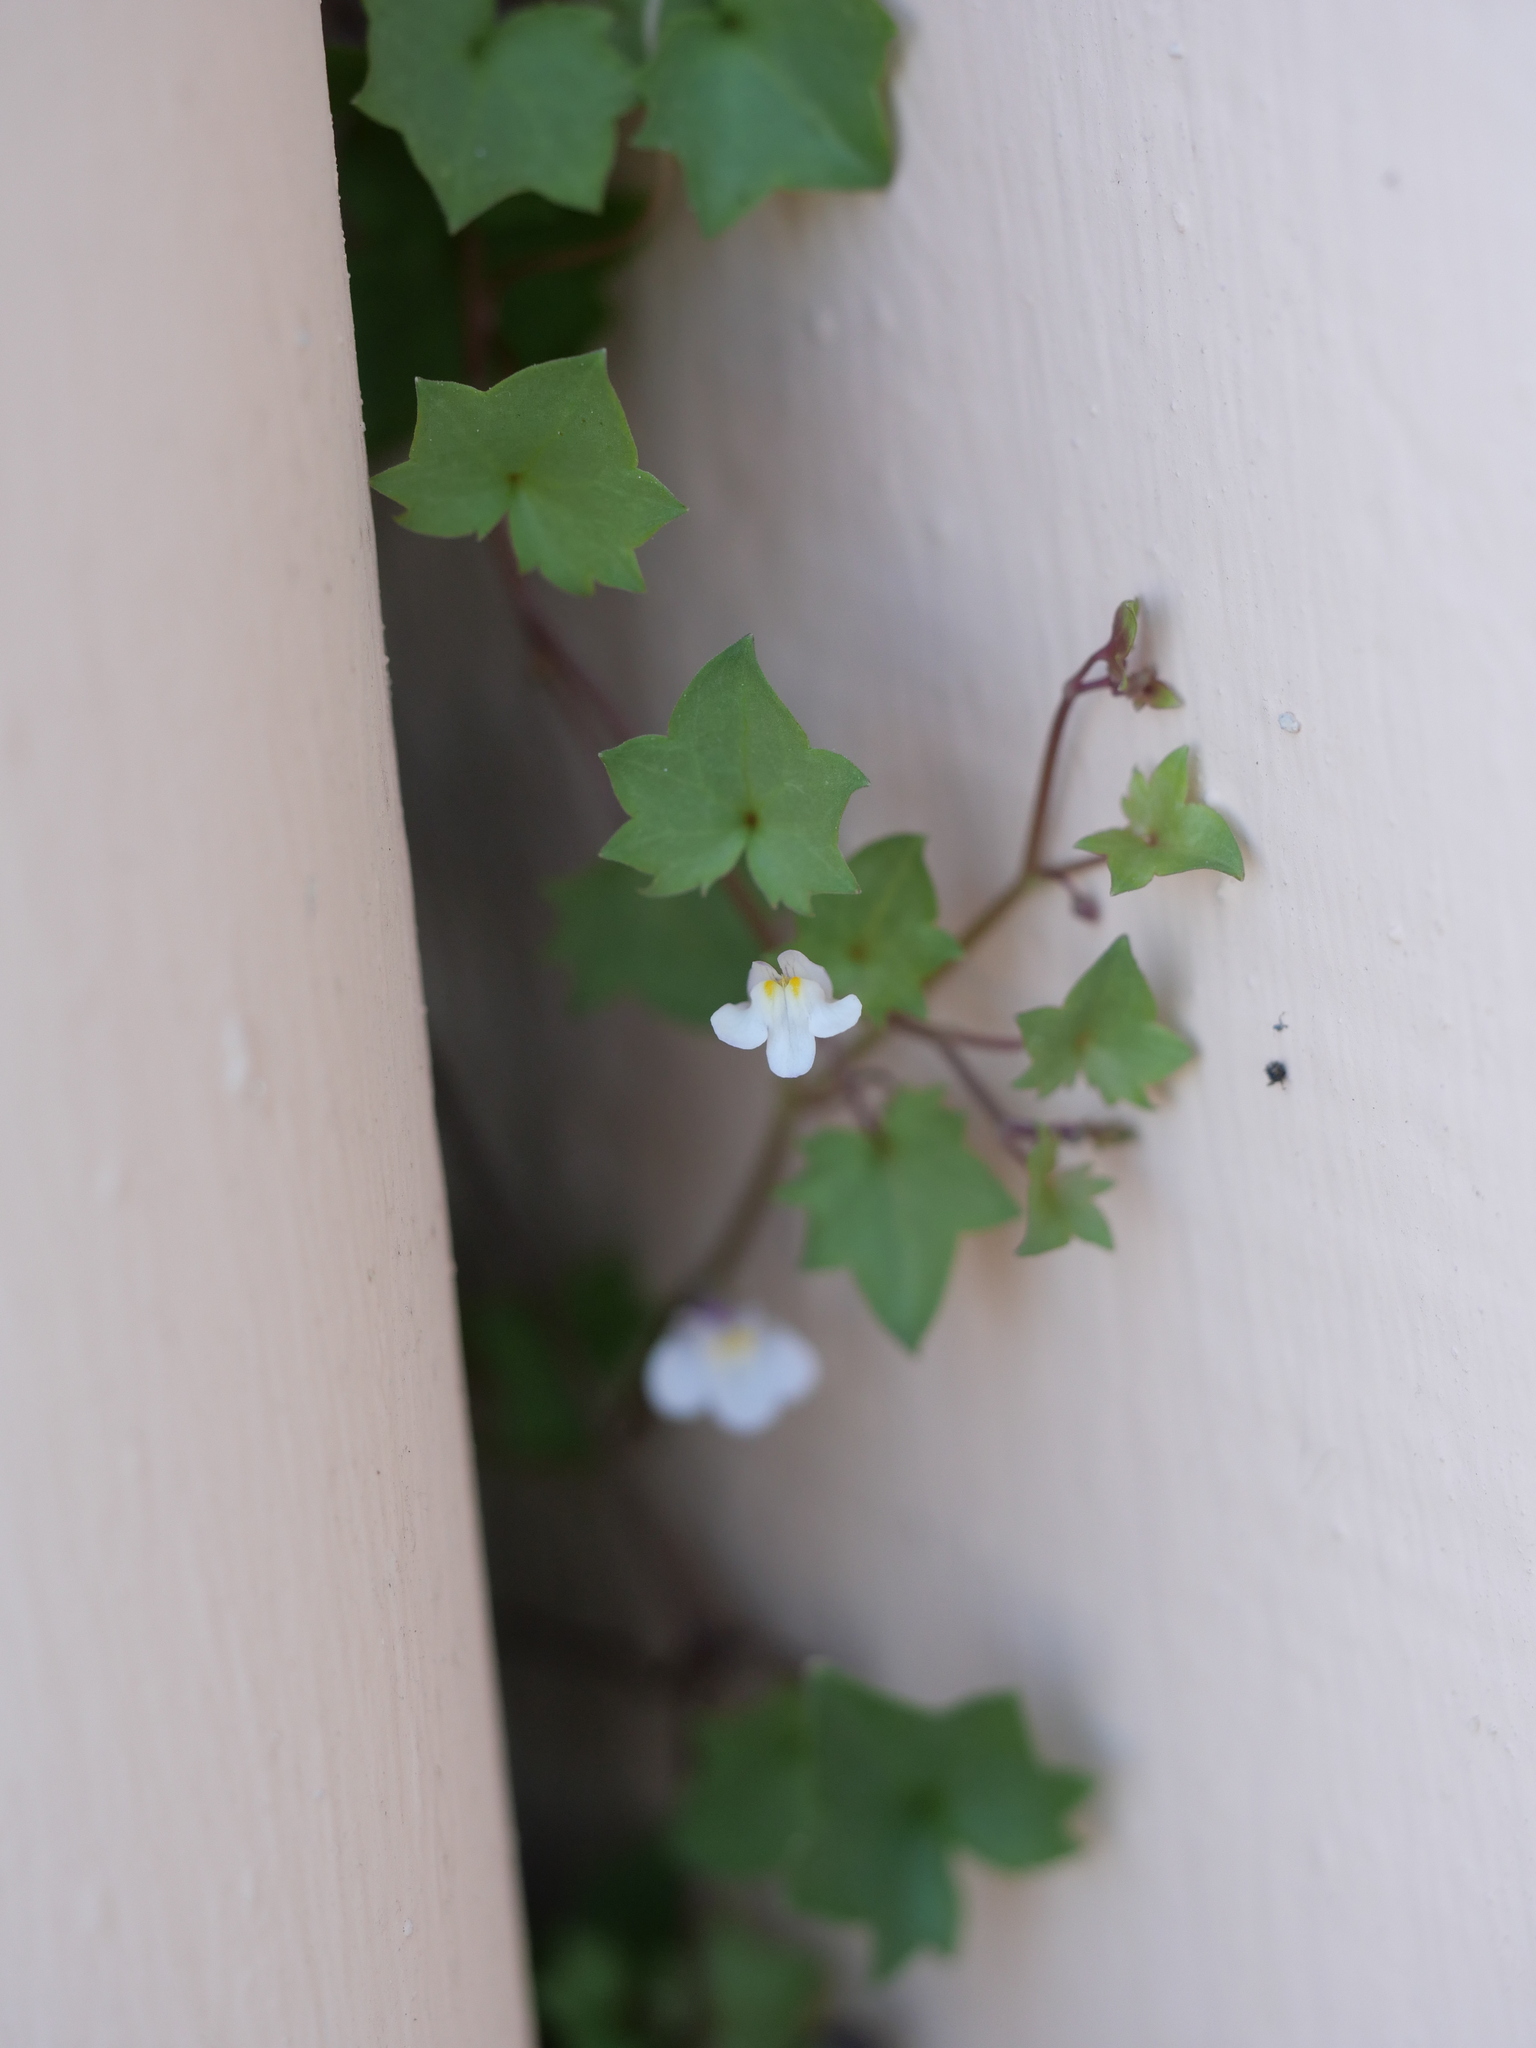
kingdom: Plantae
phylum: Tracheophyta
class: Magnoliopsida
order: Lamiales
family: Plantaginaceae
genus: Cymbalaria
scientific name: Cymbalaria muralis
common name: Ivy-leaved toadflax
